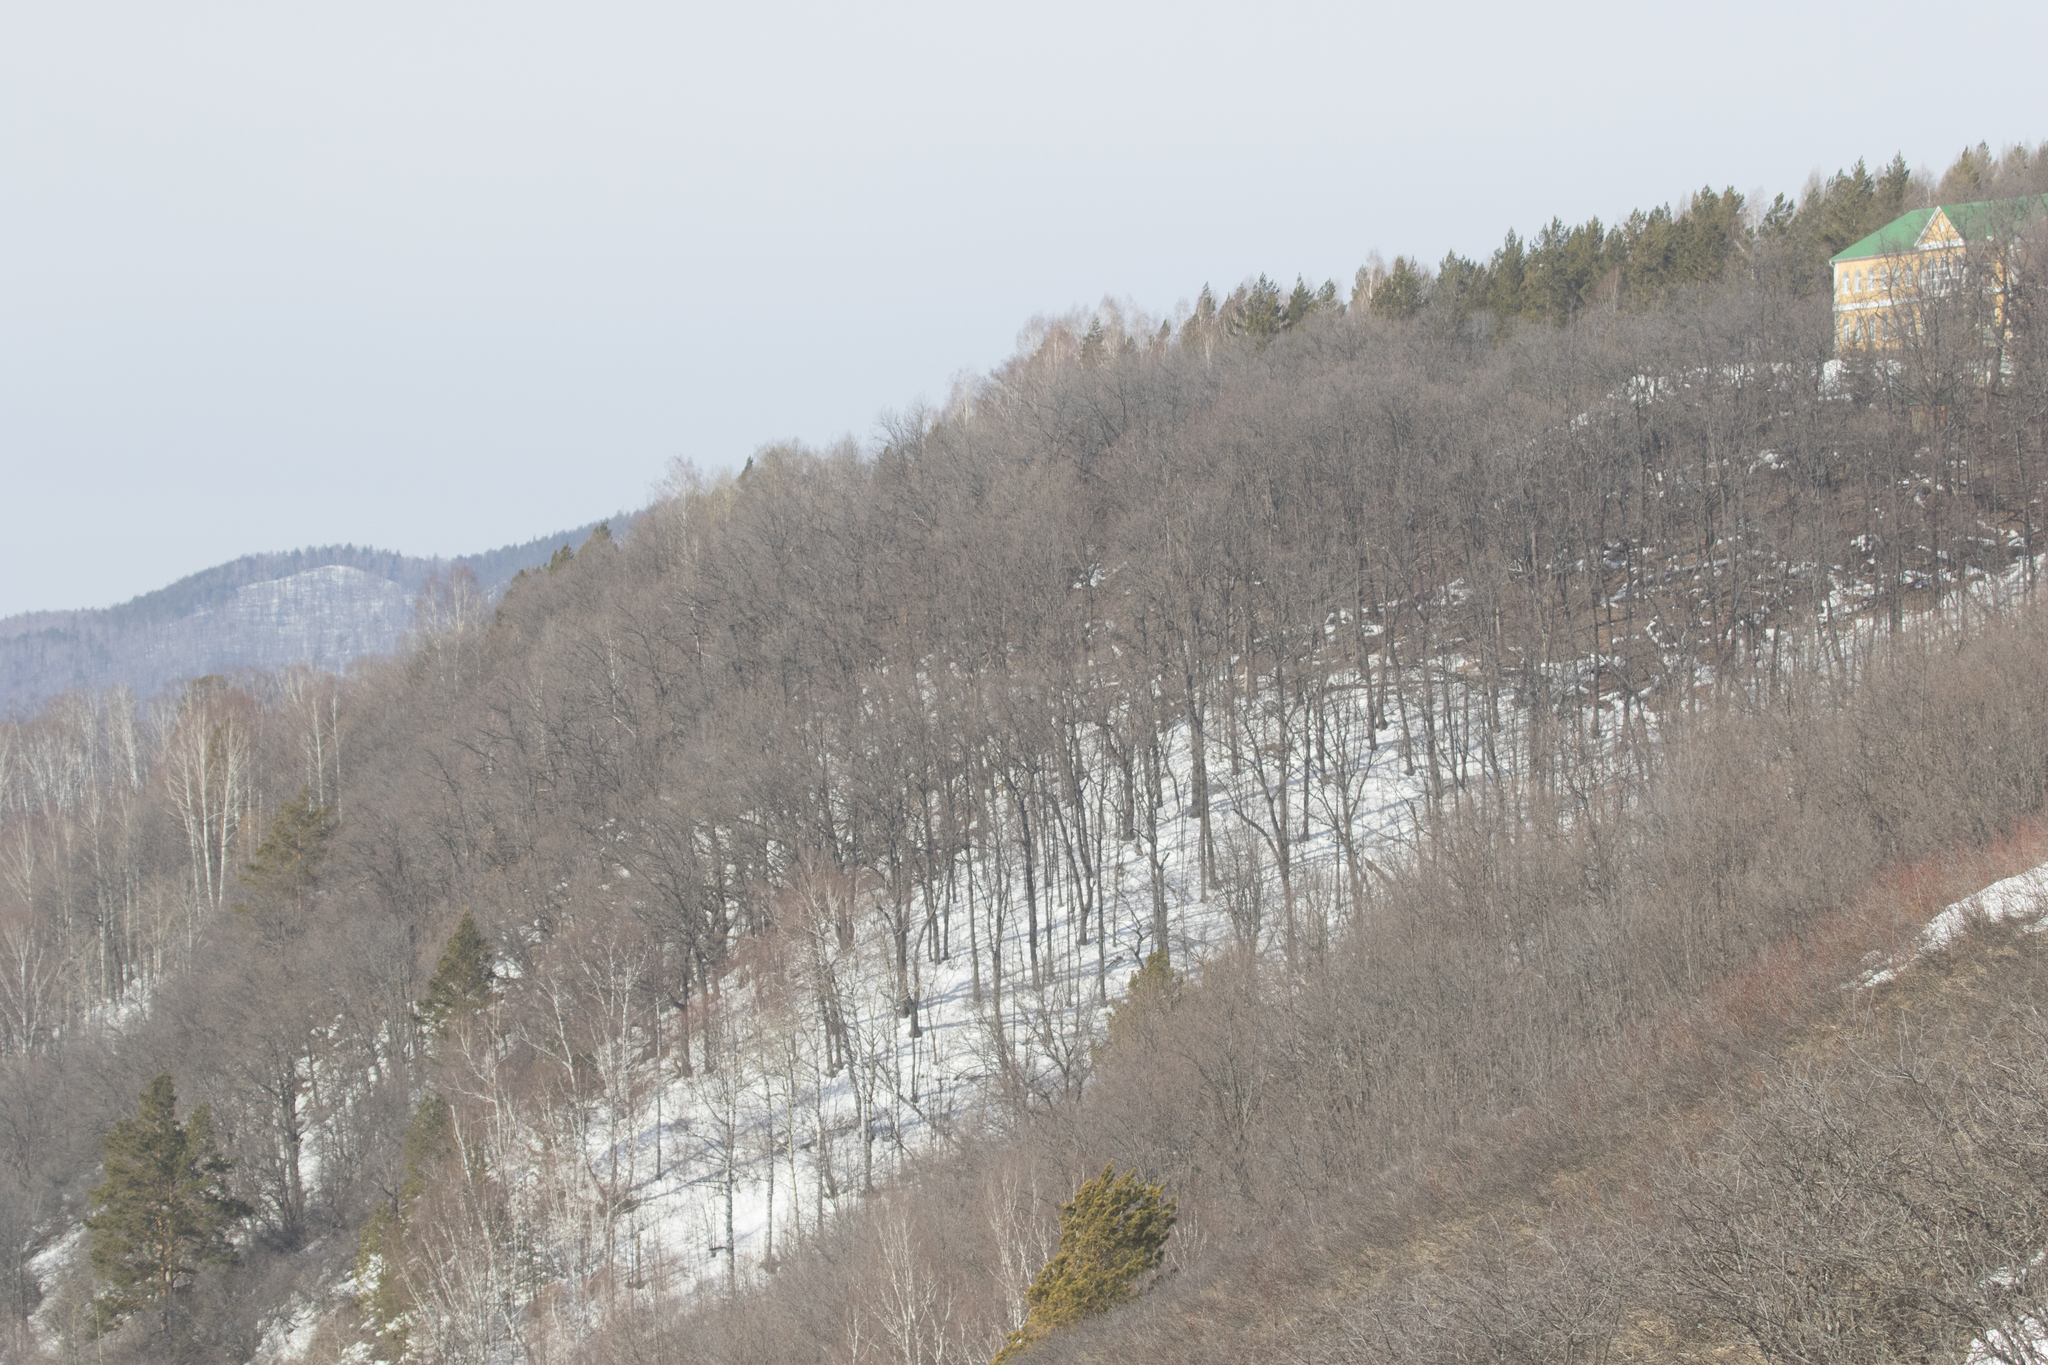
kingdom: Plantae
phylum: Tracheophyta
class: Magnoliopsida
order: Malvales
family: Malvaceae
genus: Tilia
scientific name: Tilia cordata
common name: Small-leaved lime
